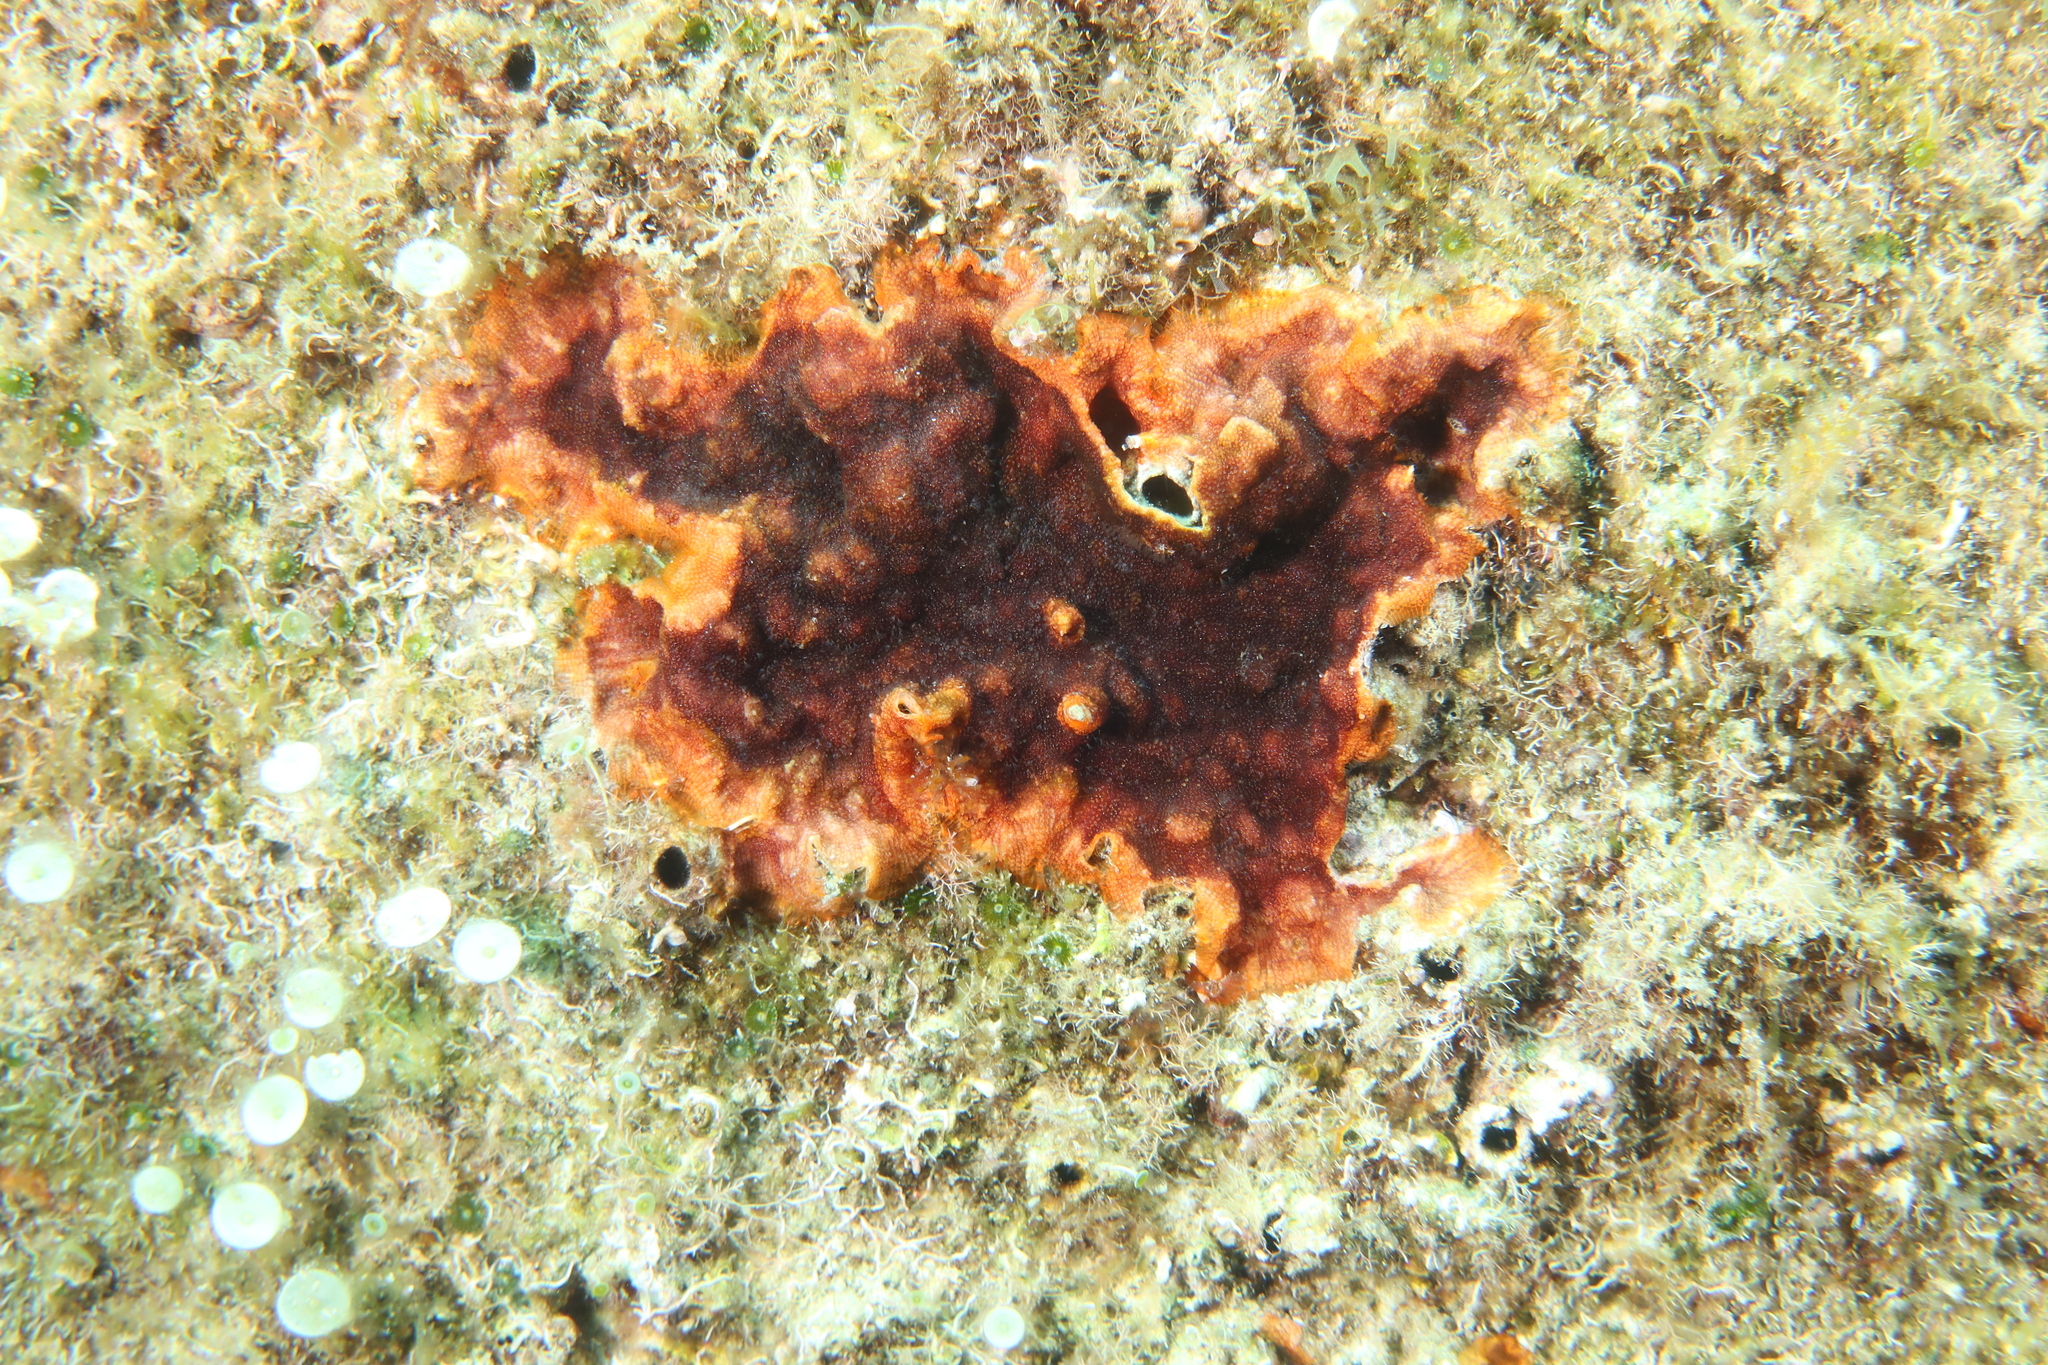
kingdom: Animalia
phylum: Bryozoa
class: Gymnolaemata
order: Cheilostomatida
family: Schizoporellidae
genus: Schizoporella
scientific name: Schizoporella errata
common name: Branching bryozoan
